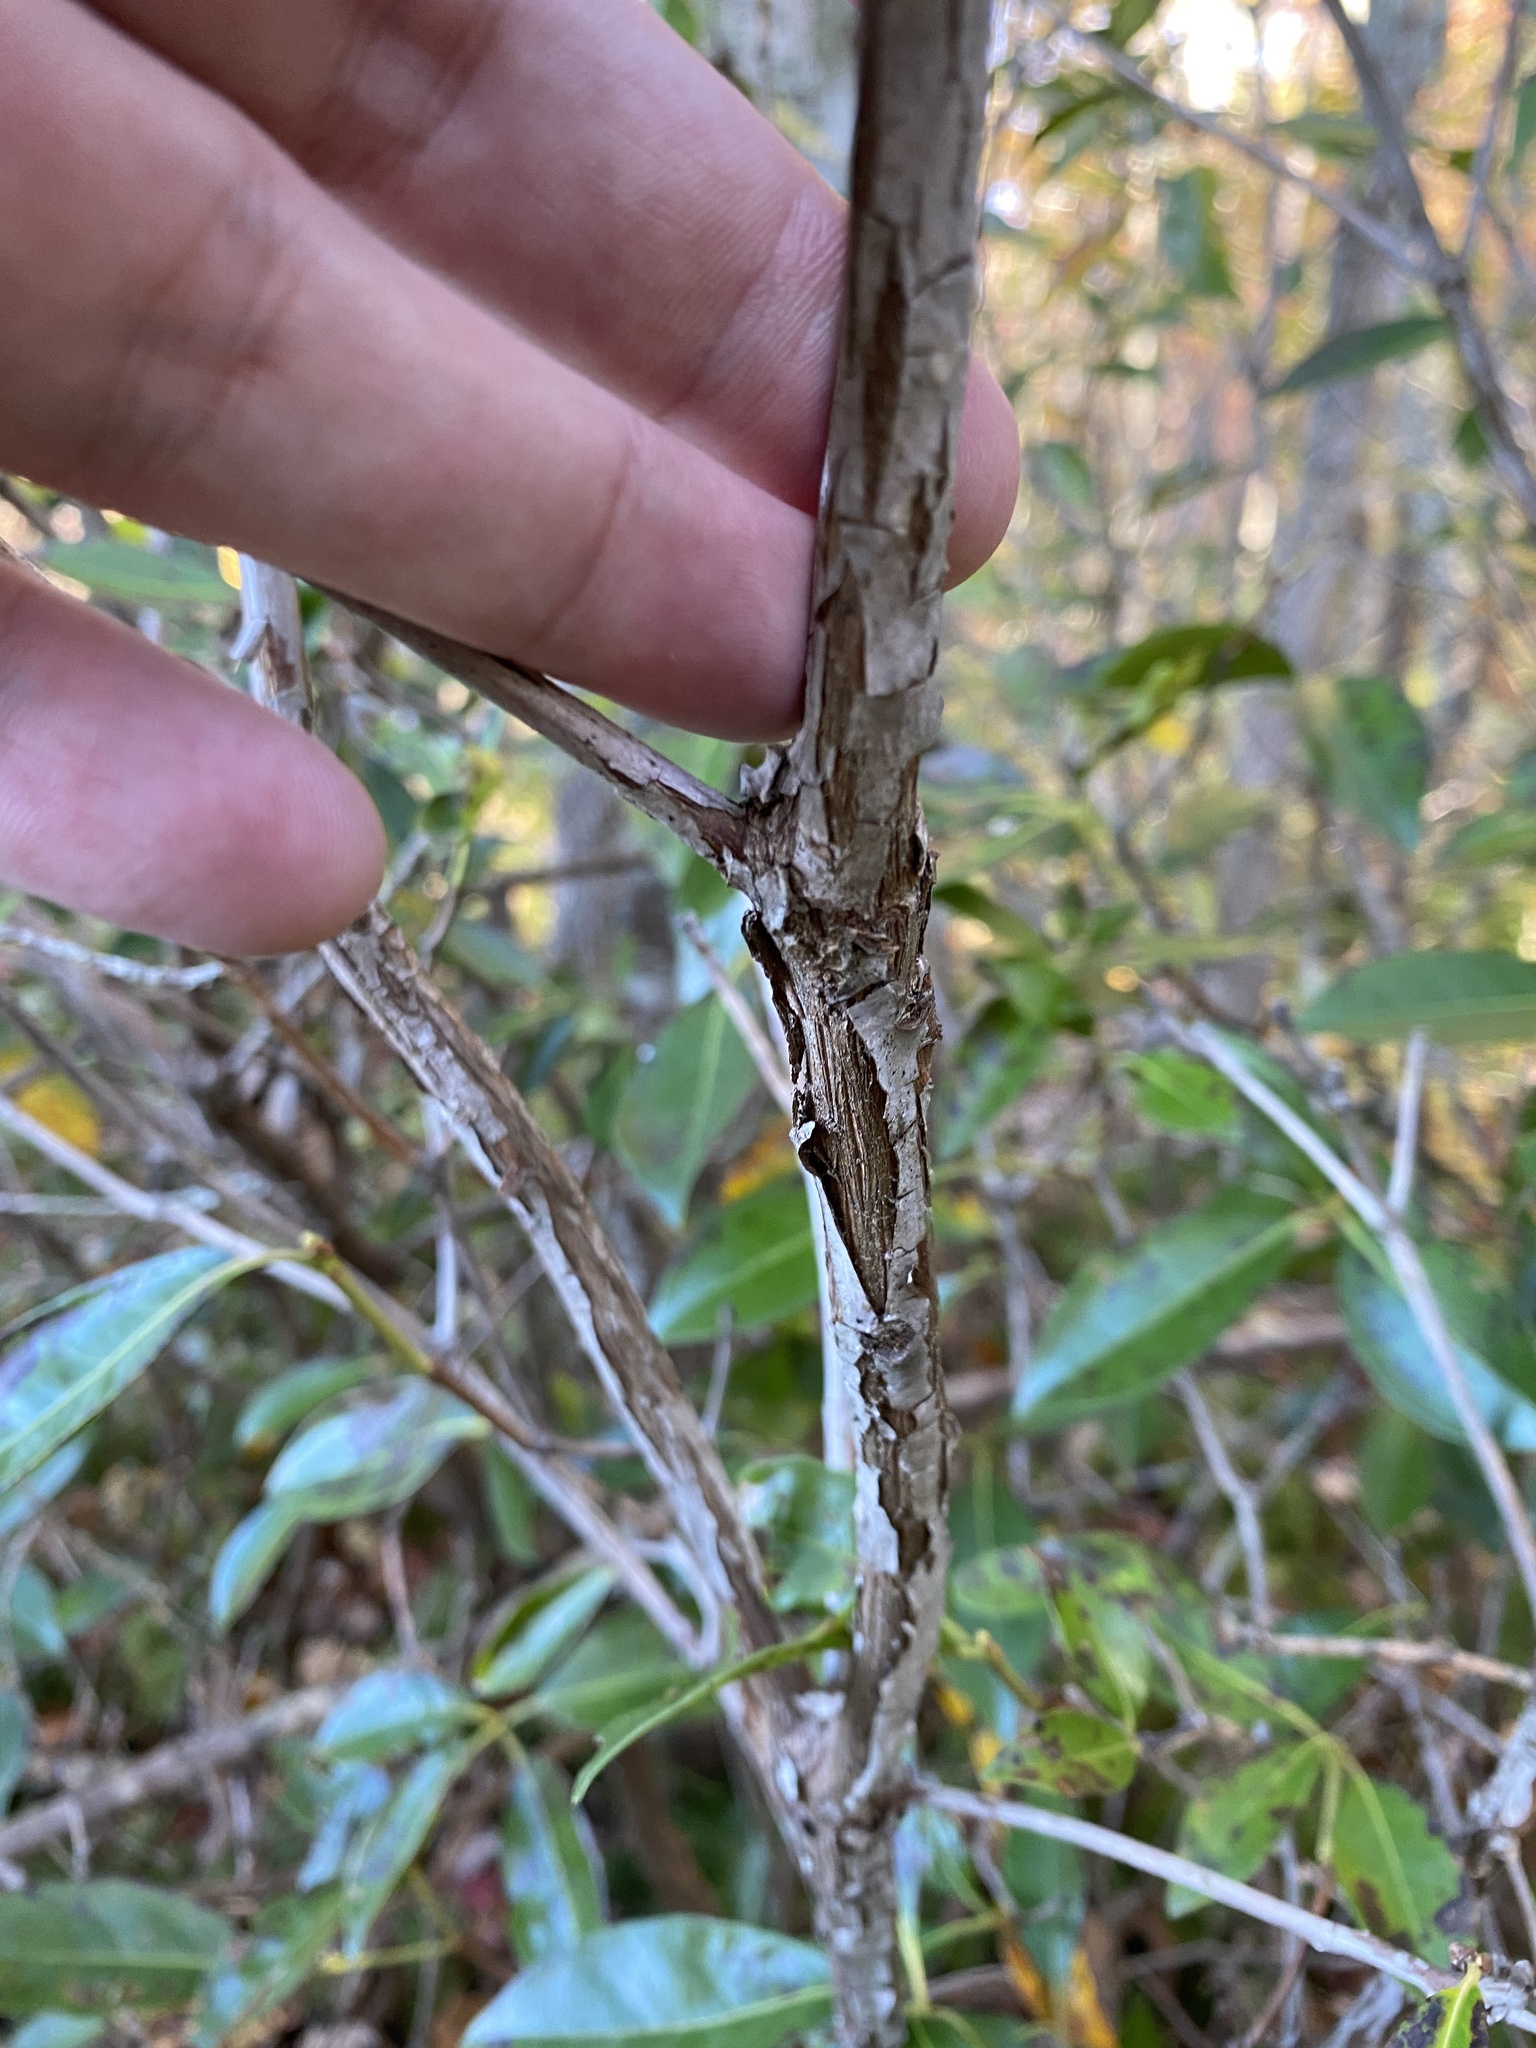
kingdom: Plantae
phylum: Tracheophyta
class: Magnoliopsida
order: Ericales
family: Ericaceae
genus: Kalmia
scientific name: Kalmia latifolia
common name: Mountain-laurel
